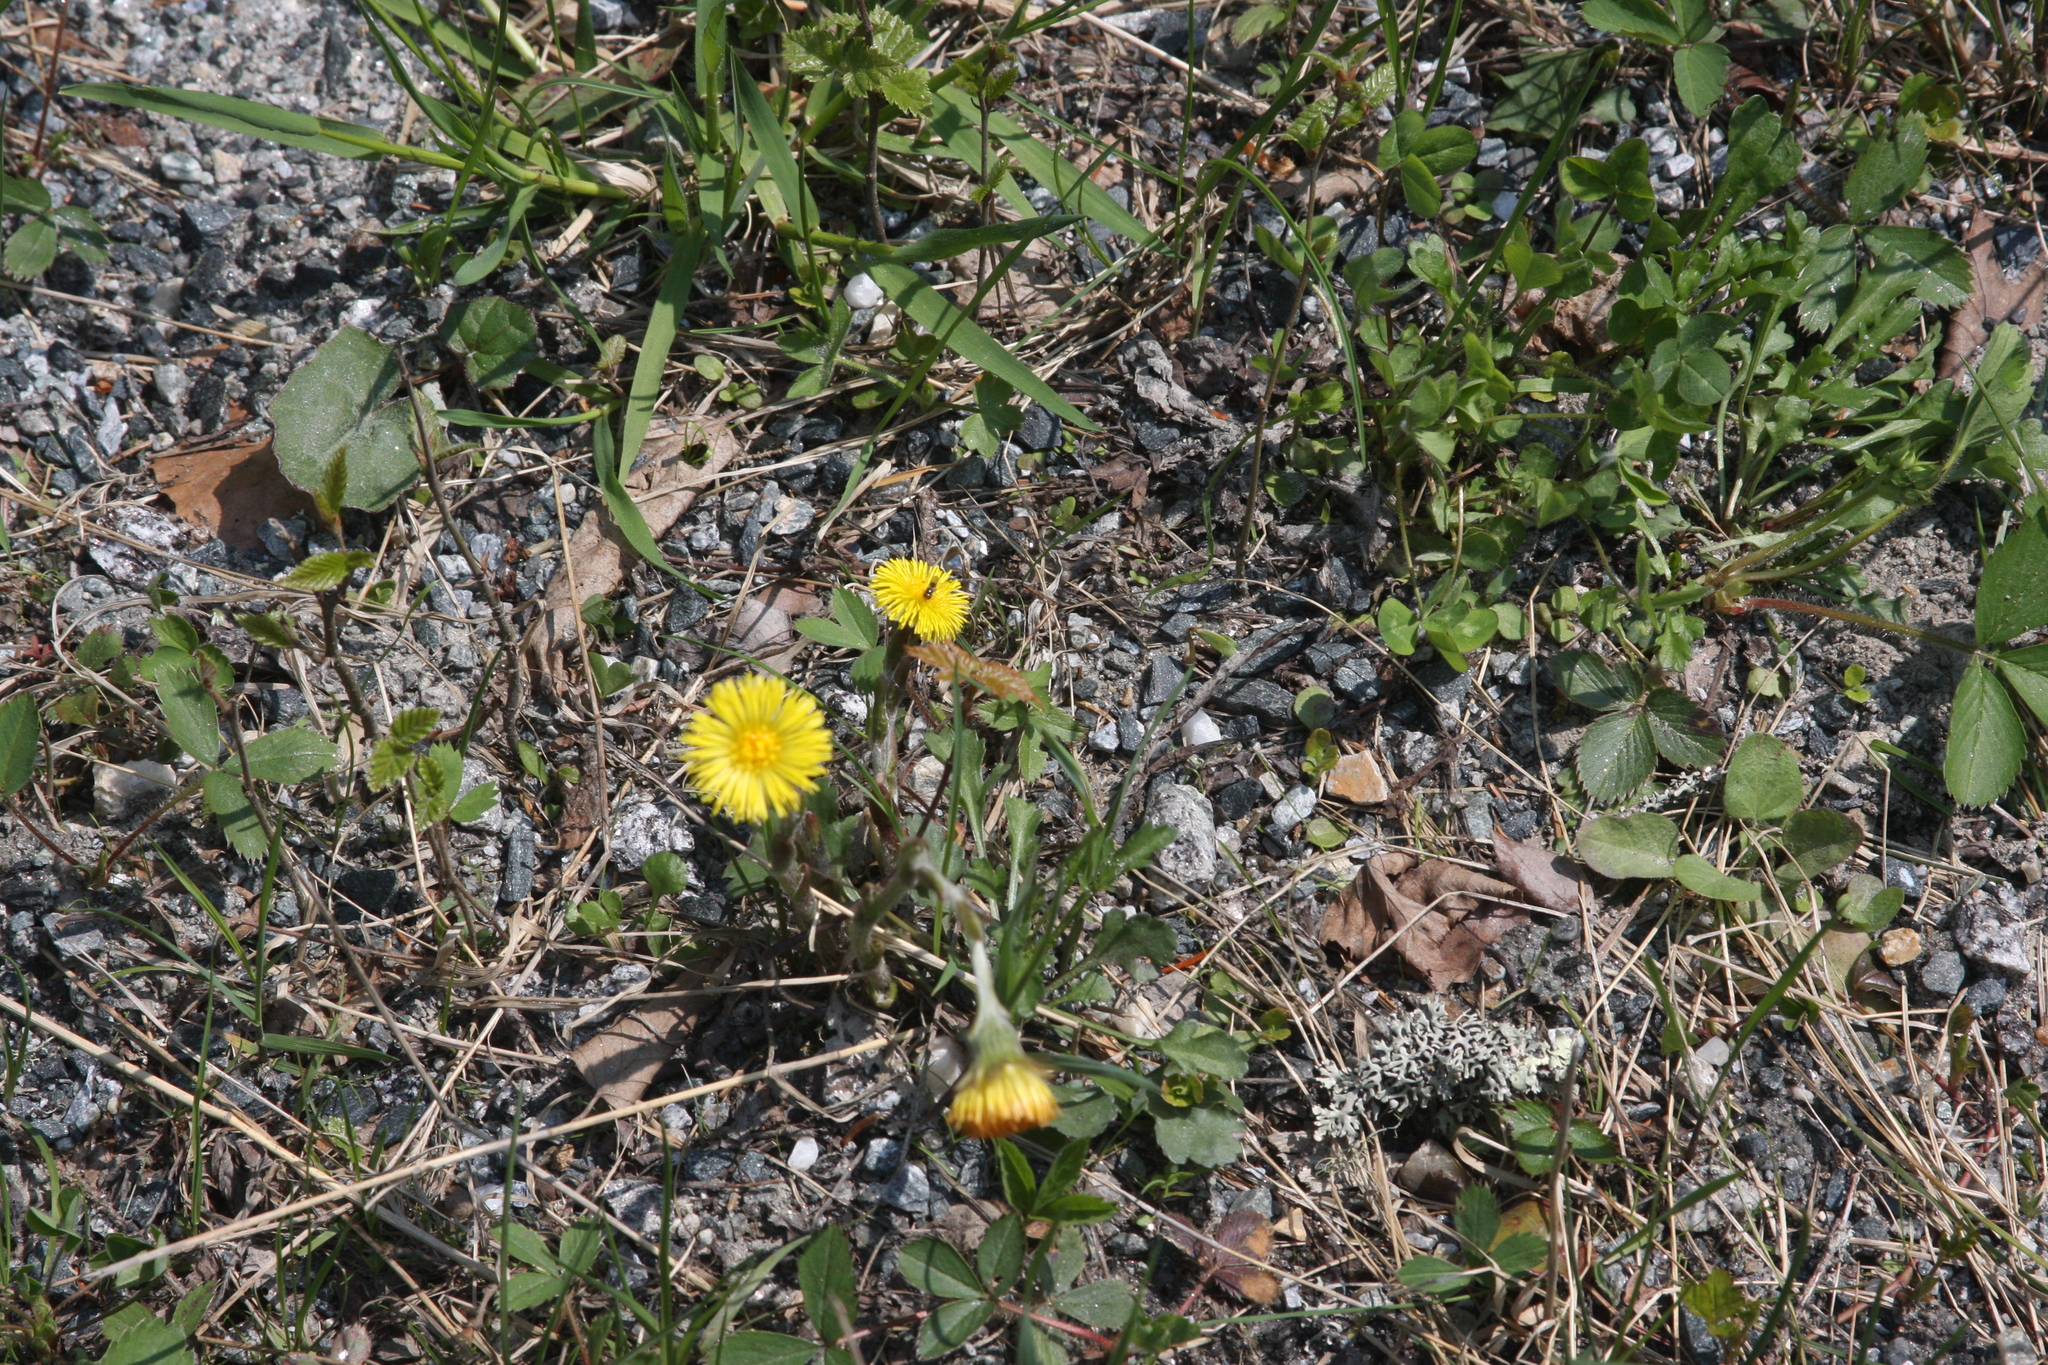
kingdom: Plantae
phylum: Tracheophyta
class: Magnoliopsida
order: Asterales
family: Asteraceae
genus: Tussilago
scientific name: Tussilago farfara
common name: Coltsfoot
